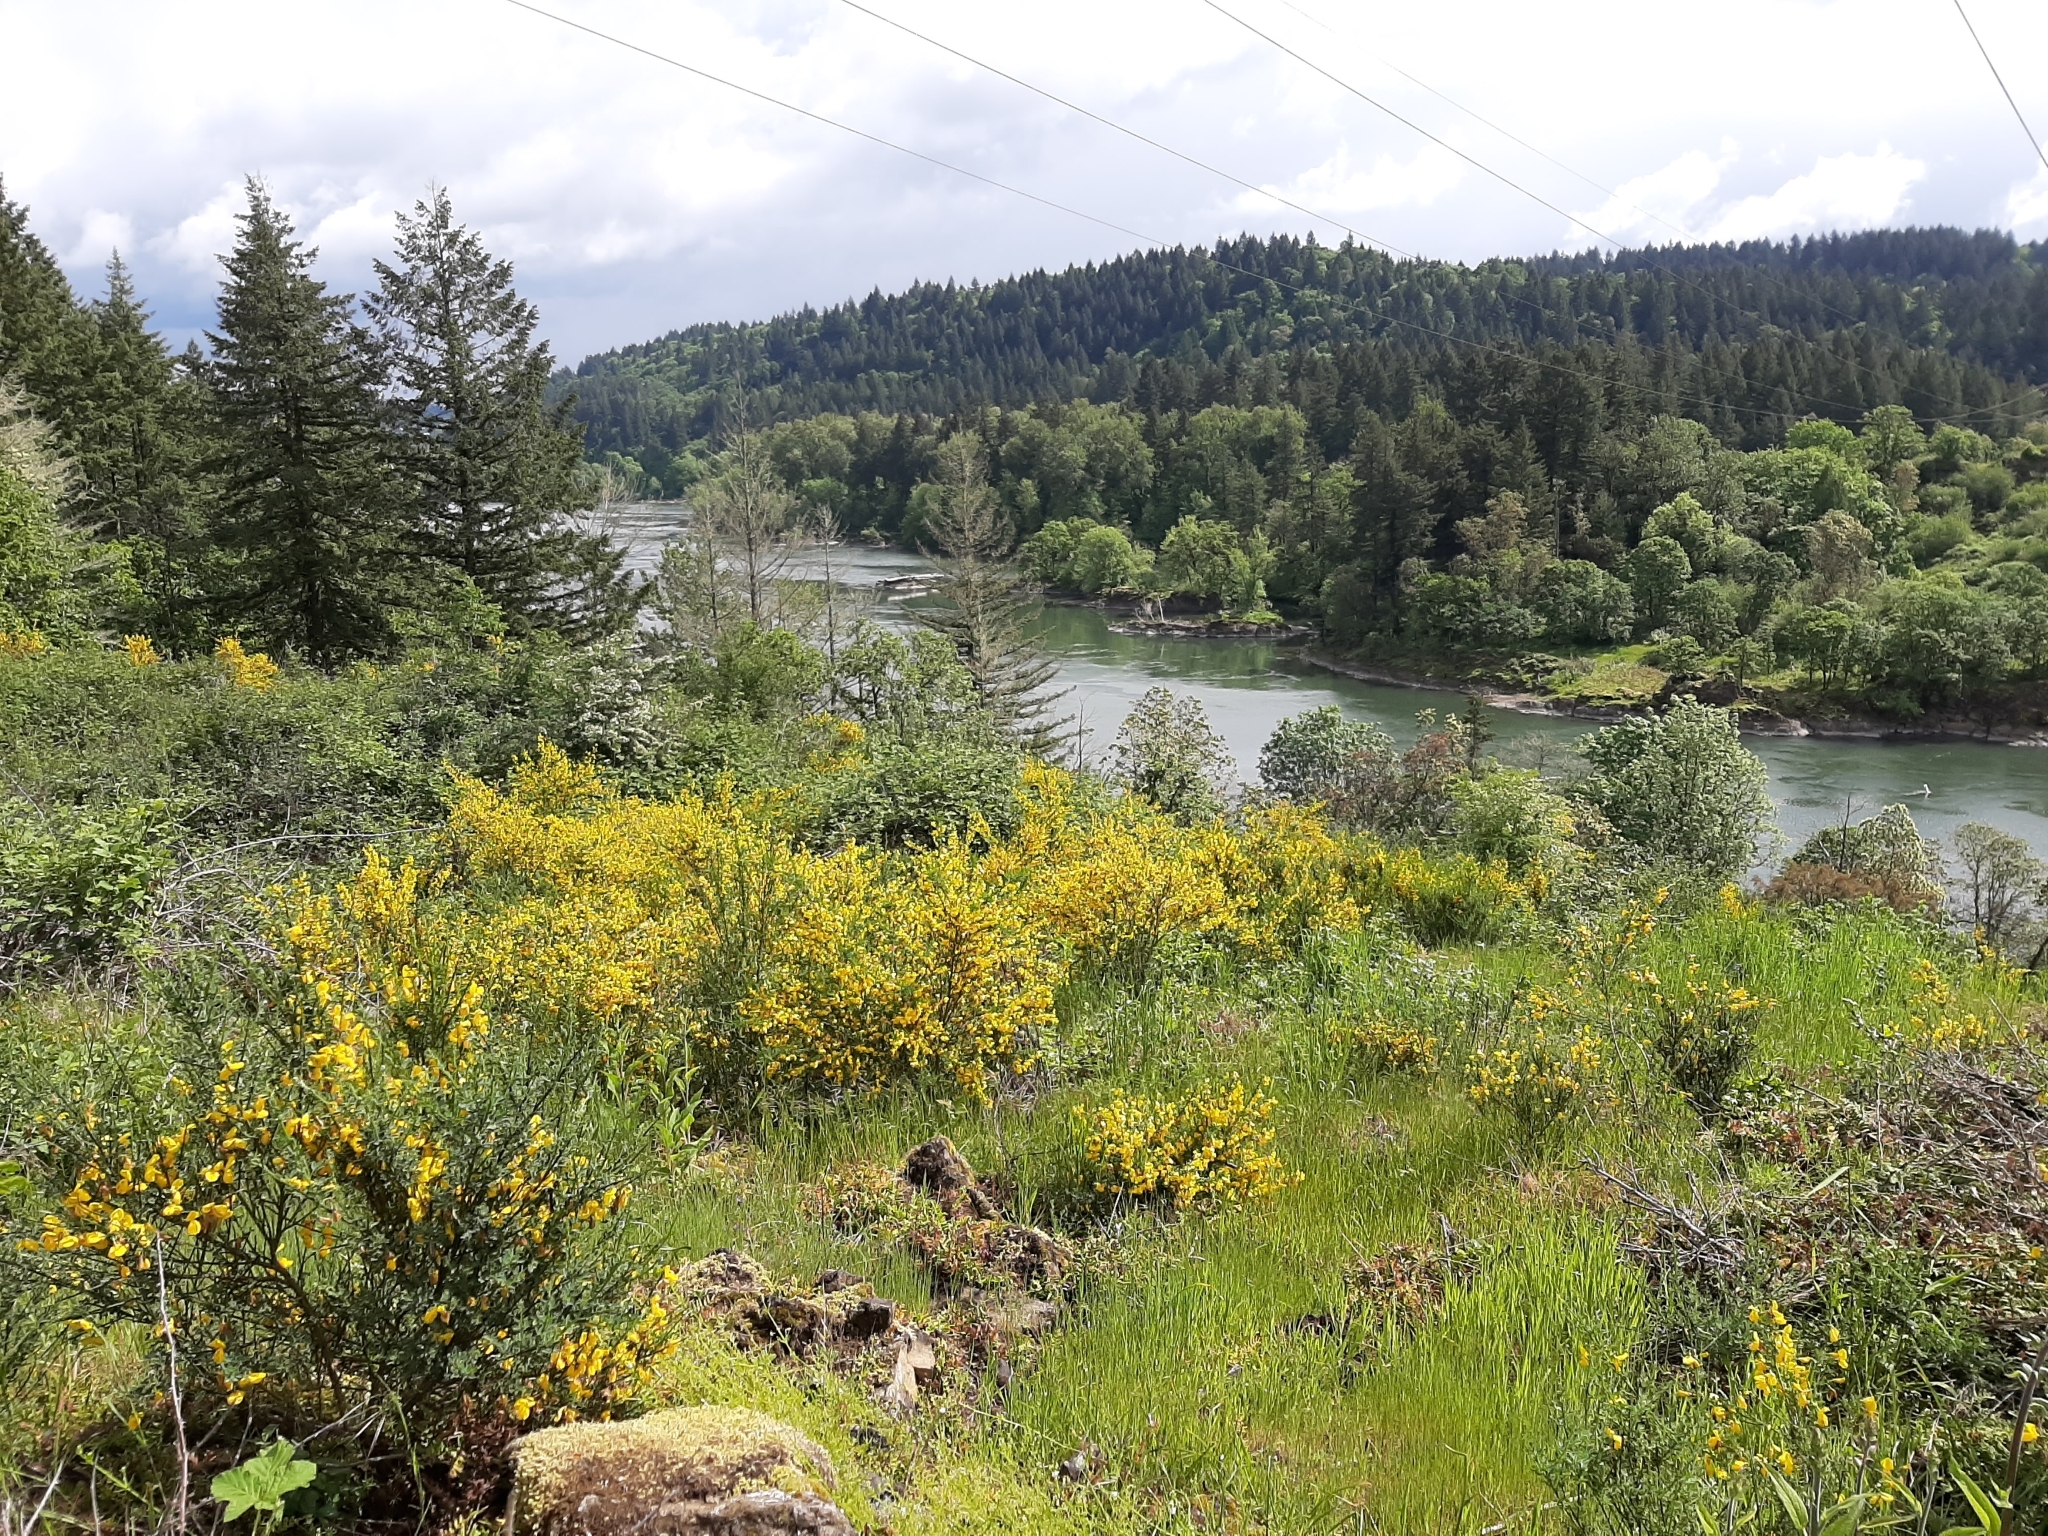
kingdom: Plantae
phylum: Tracheophyta
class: Magnoliopsida
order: Fabales
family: Fabaceae
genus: Cytisus
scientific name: Cytisus scoparius
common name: Scotch broom
